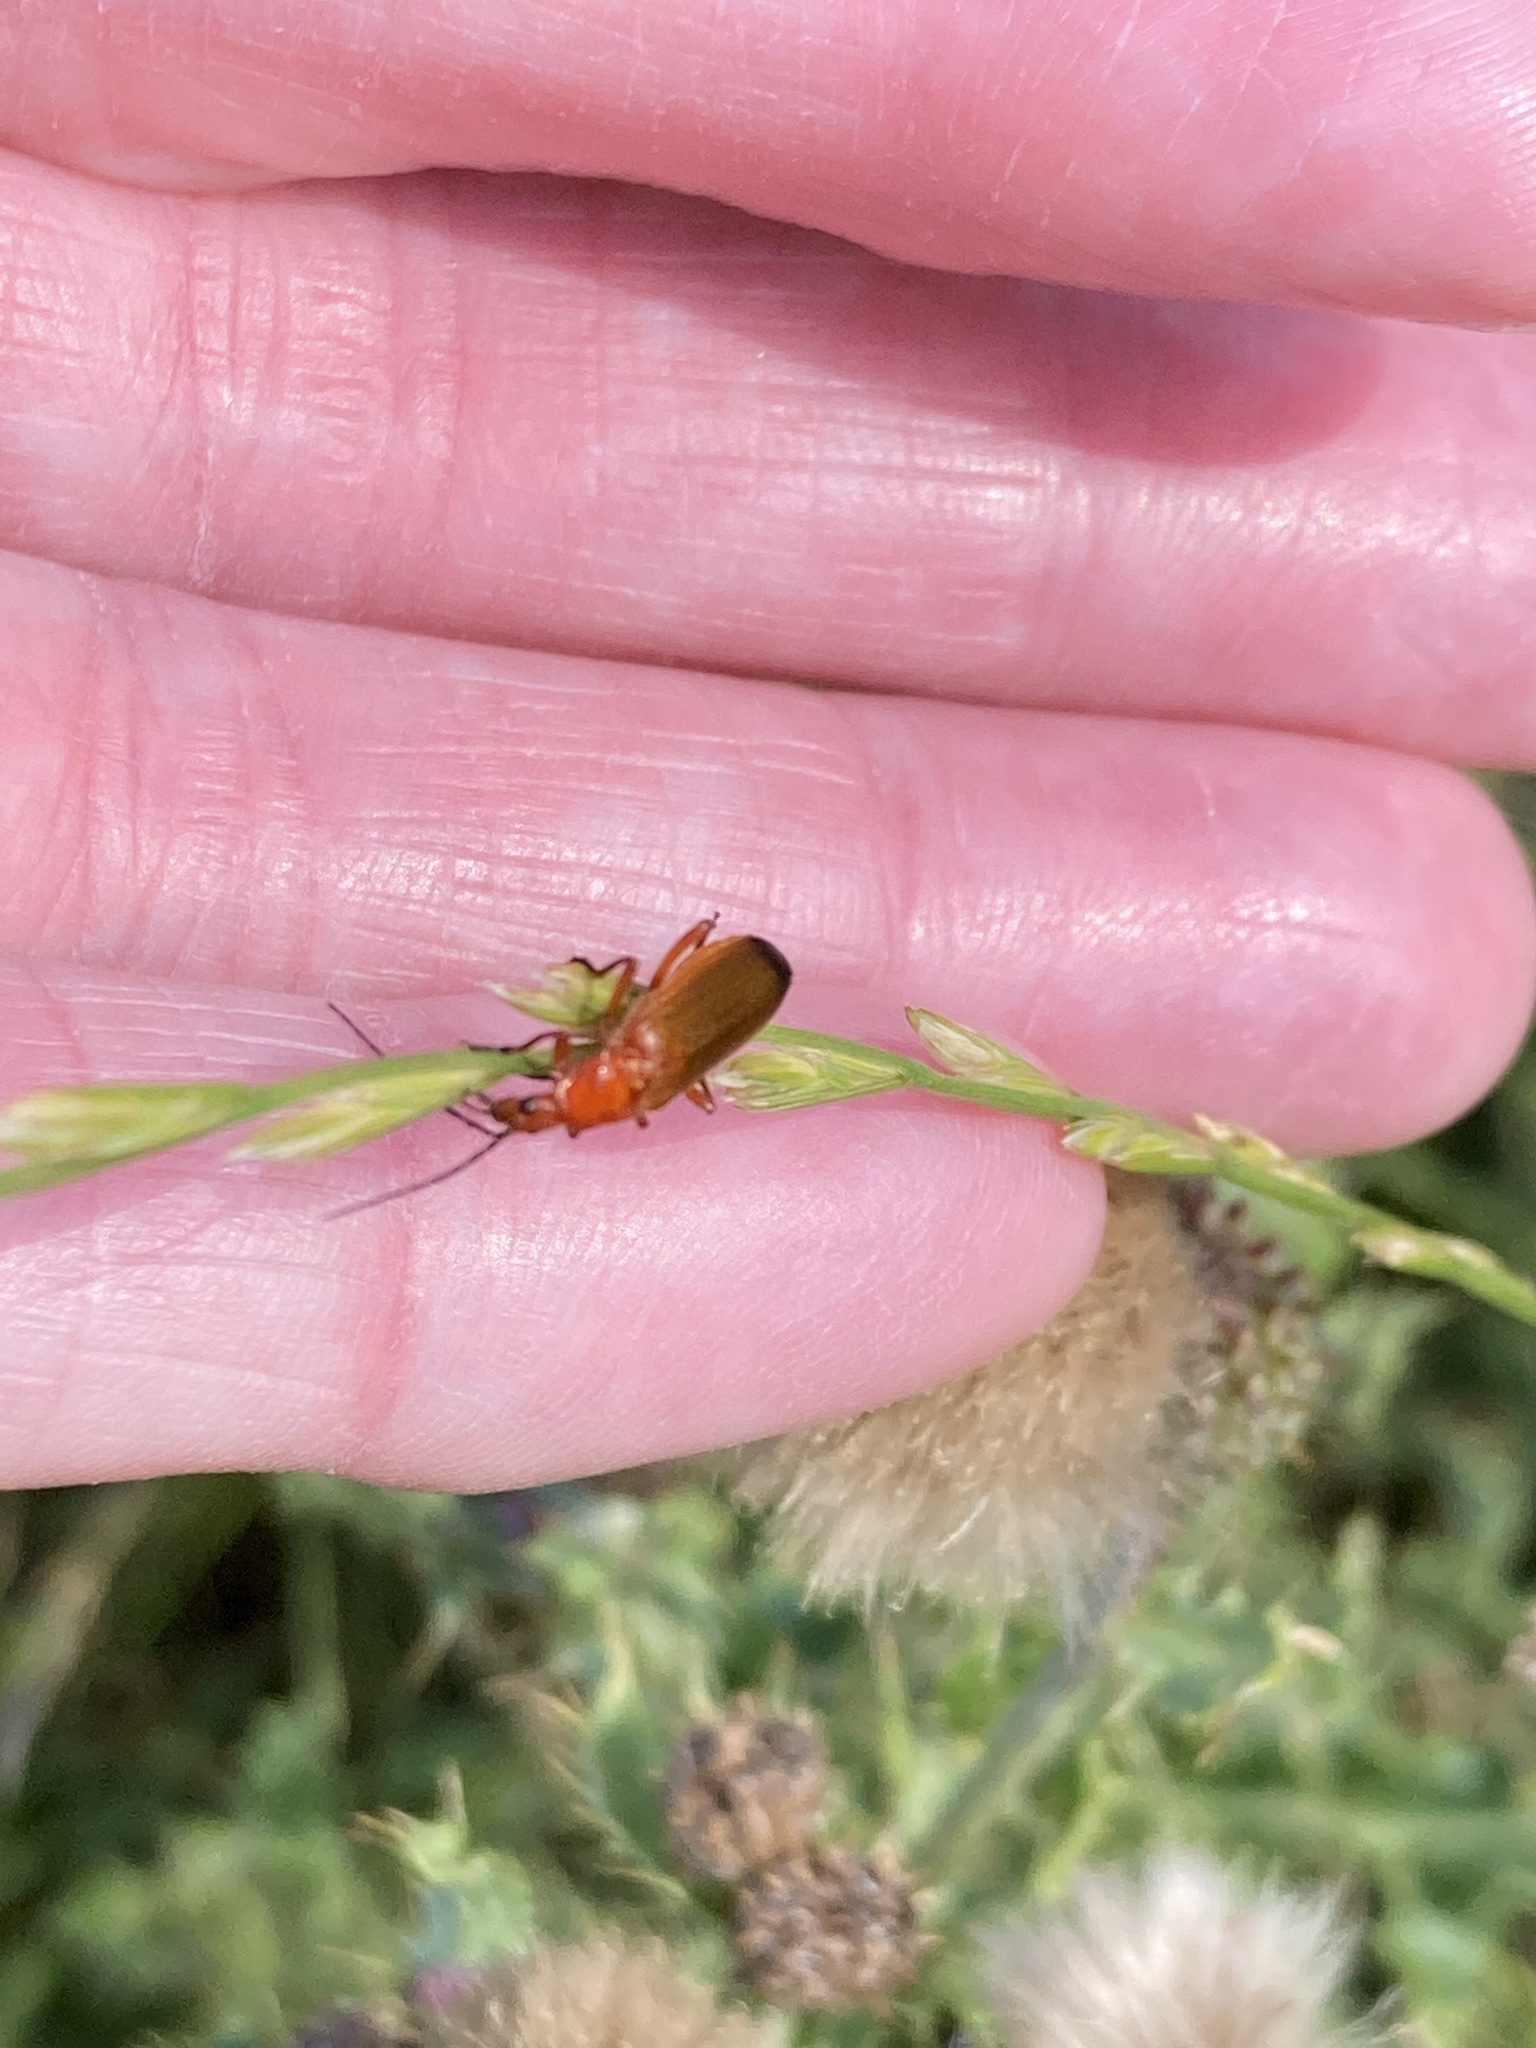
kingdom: Animalia
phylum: Arthropoda
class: Insecta
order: Coleoptera
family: Cantharidae
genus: Rhagonycha
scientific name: Rhagonycha fulva
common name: Common red soldier beetle
